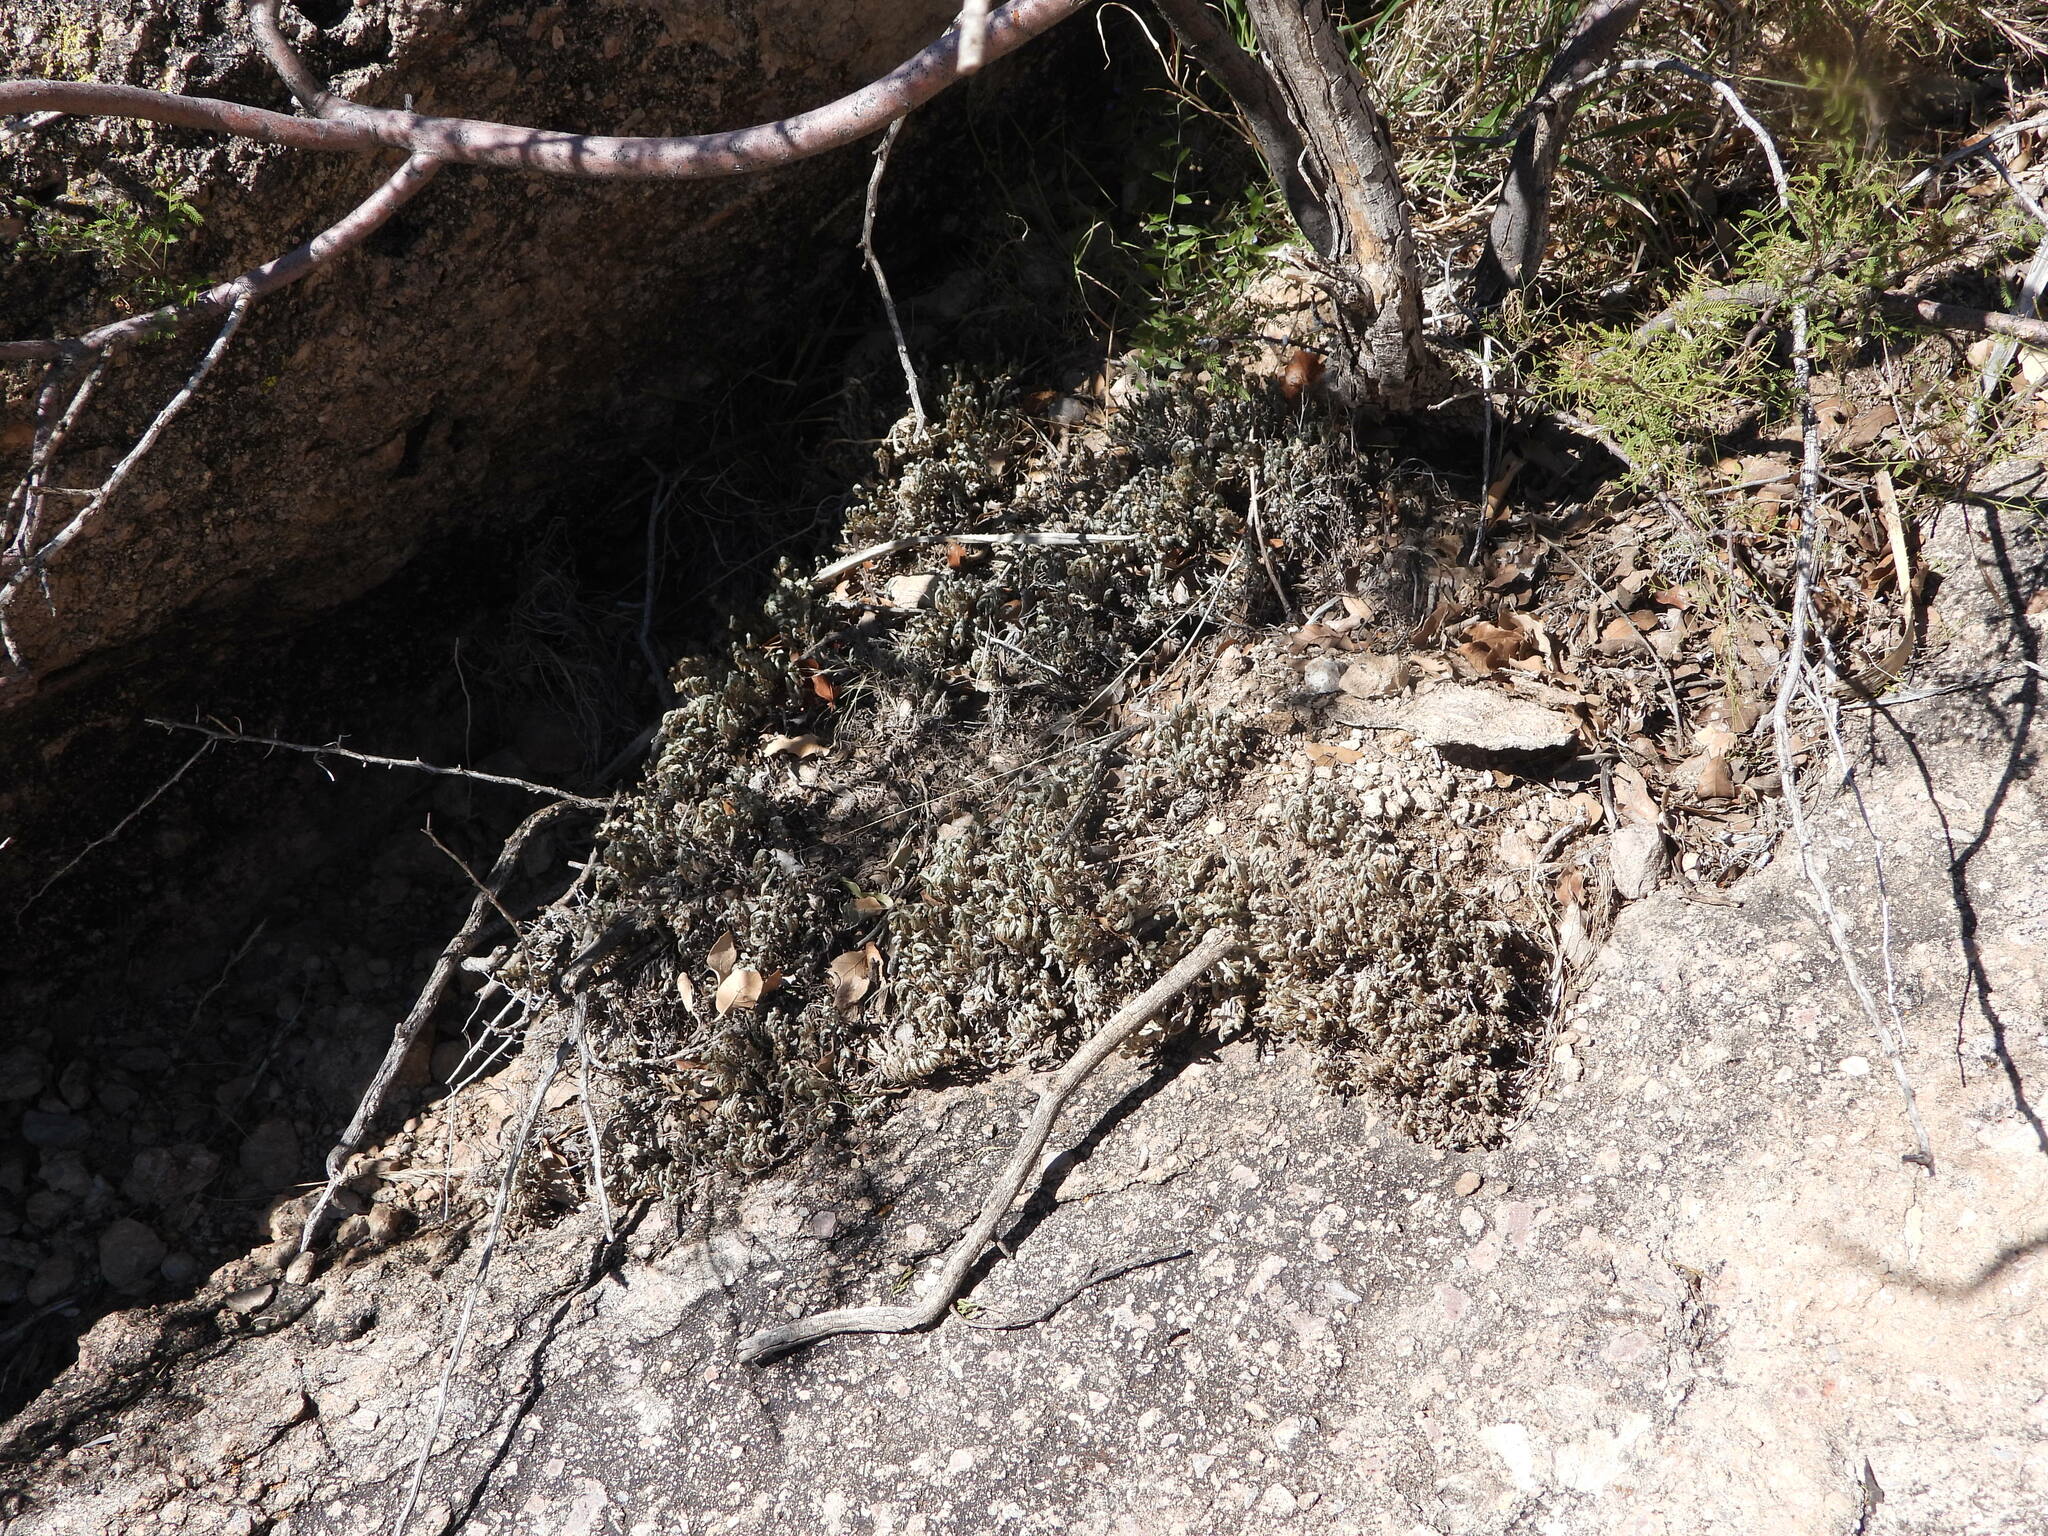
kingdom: Plantae
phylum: Tracheophyta
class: Lycopodiopsida
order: Selaginellales
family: Selaginellaceae
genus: Selaginella
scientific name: Selaginella rupincola
